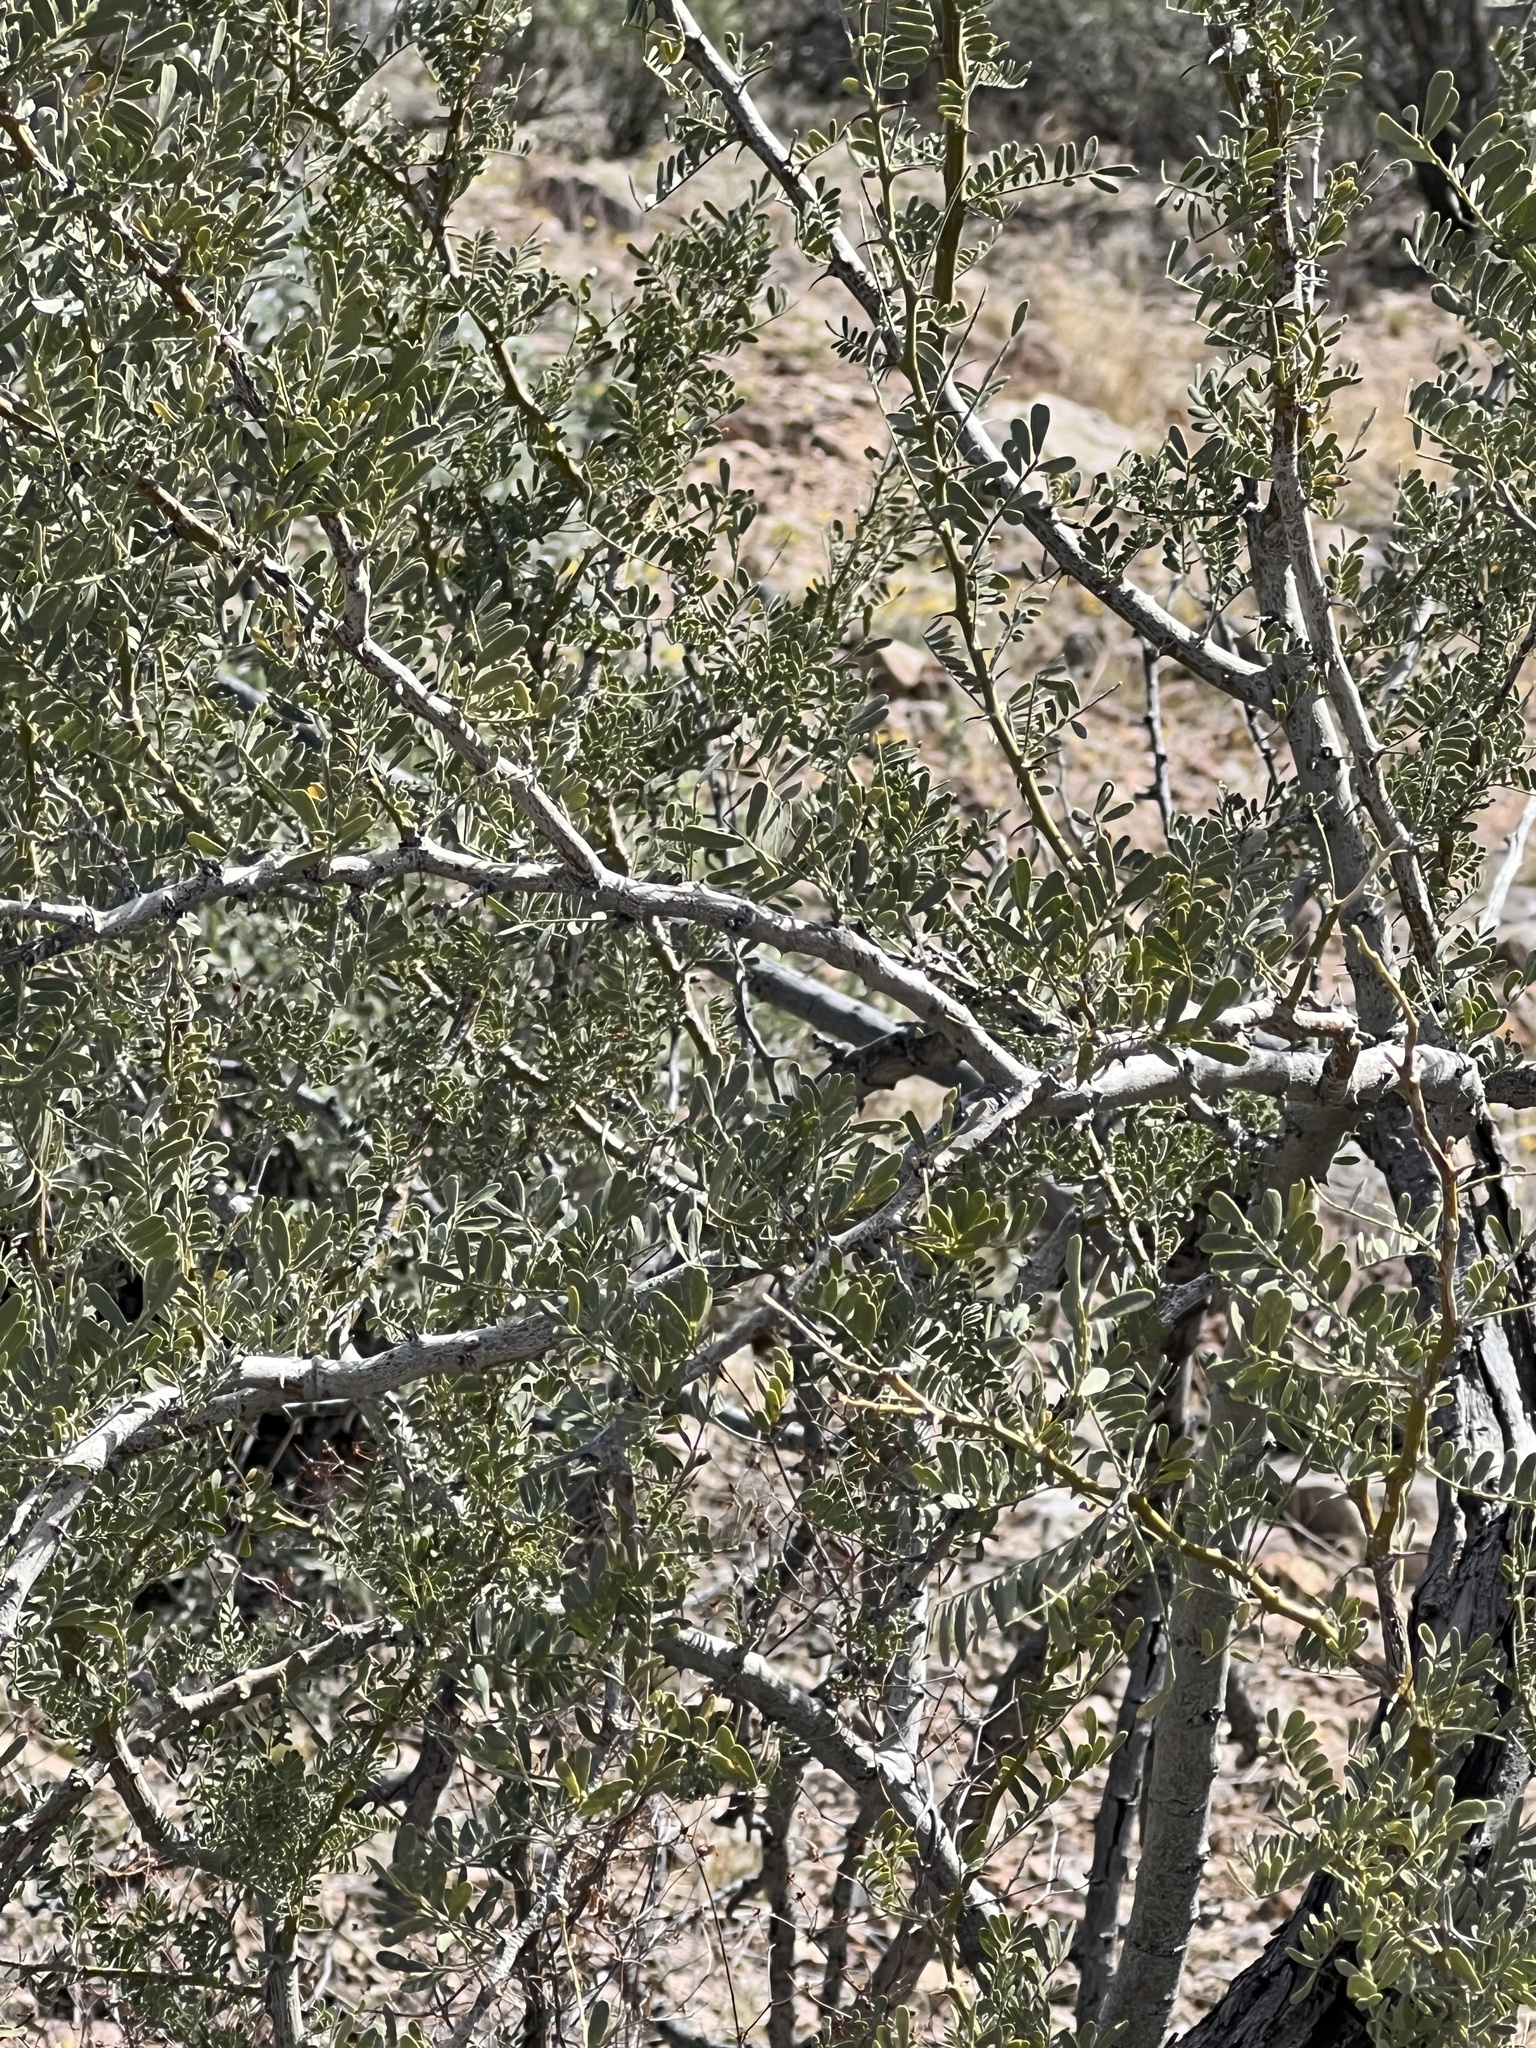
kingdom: Plantae
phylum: Tracheophyta
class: Magnoliopsida
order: Fabales
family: Fabaceae
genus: Olneya
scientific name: Olneya tesota
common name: Desert ironwood
